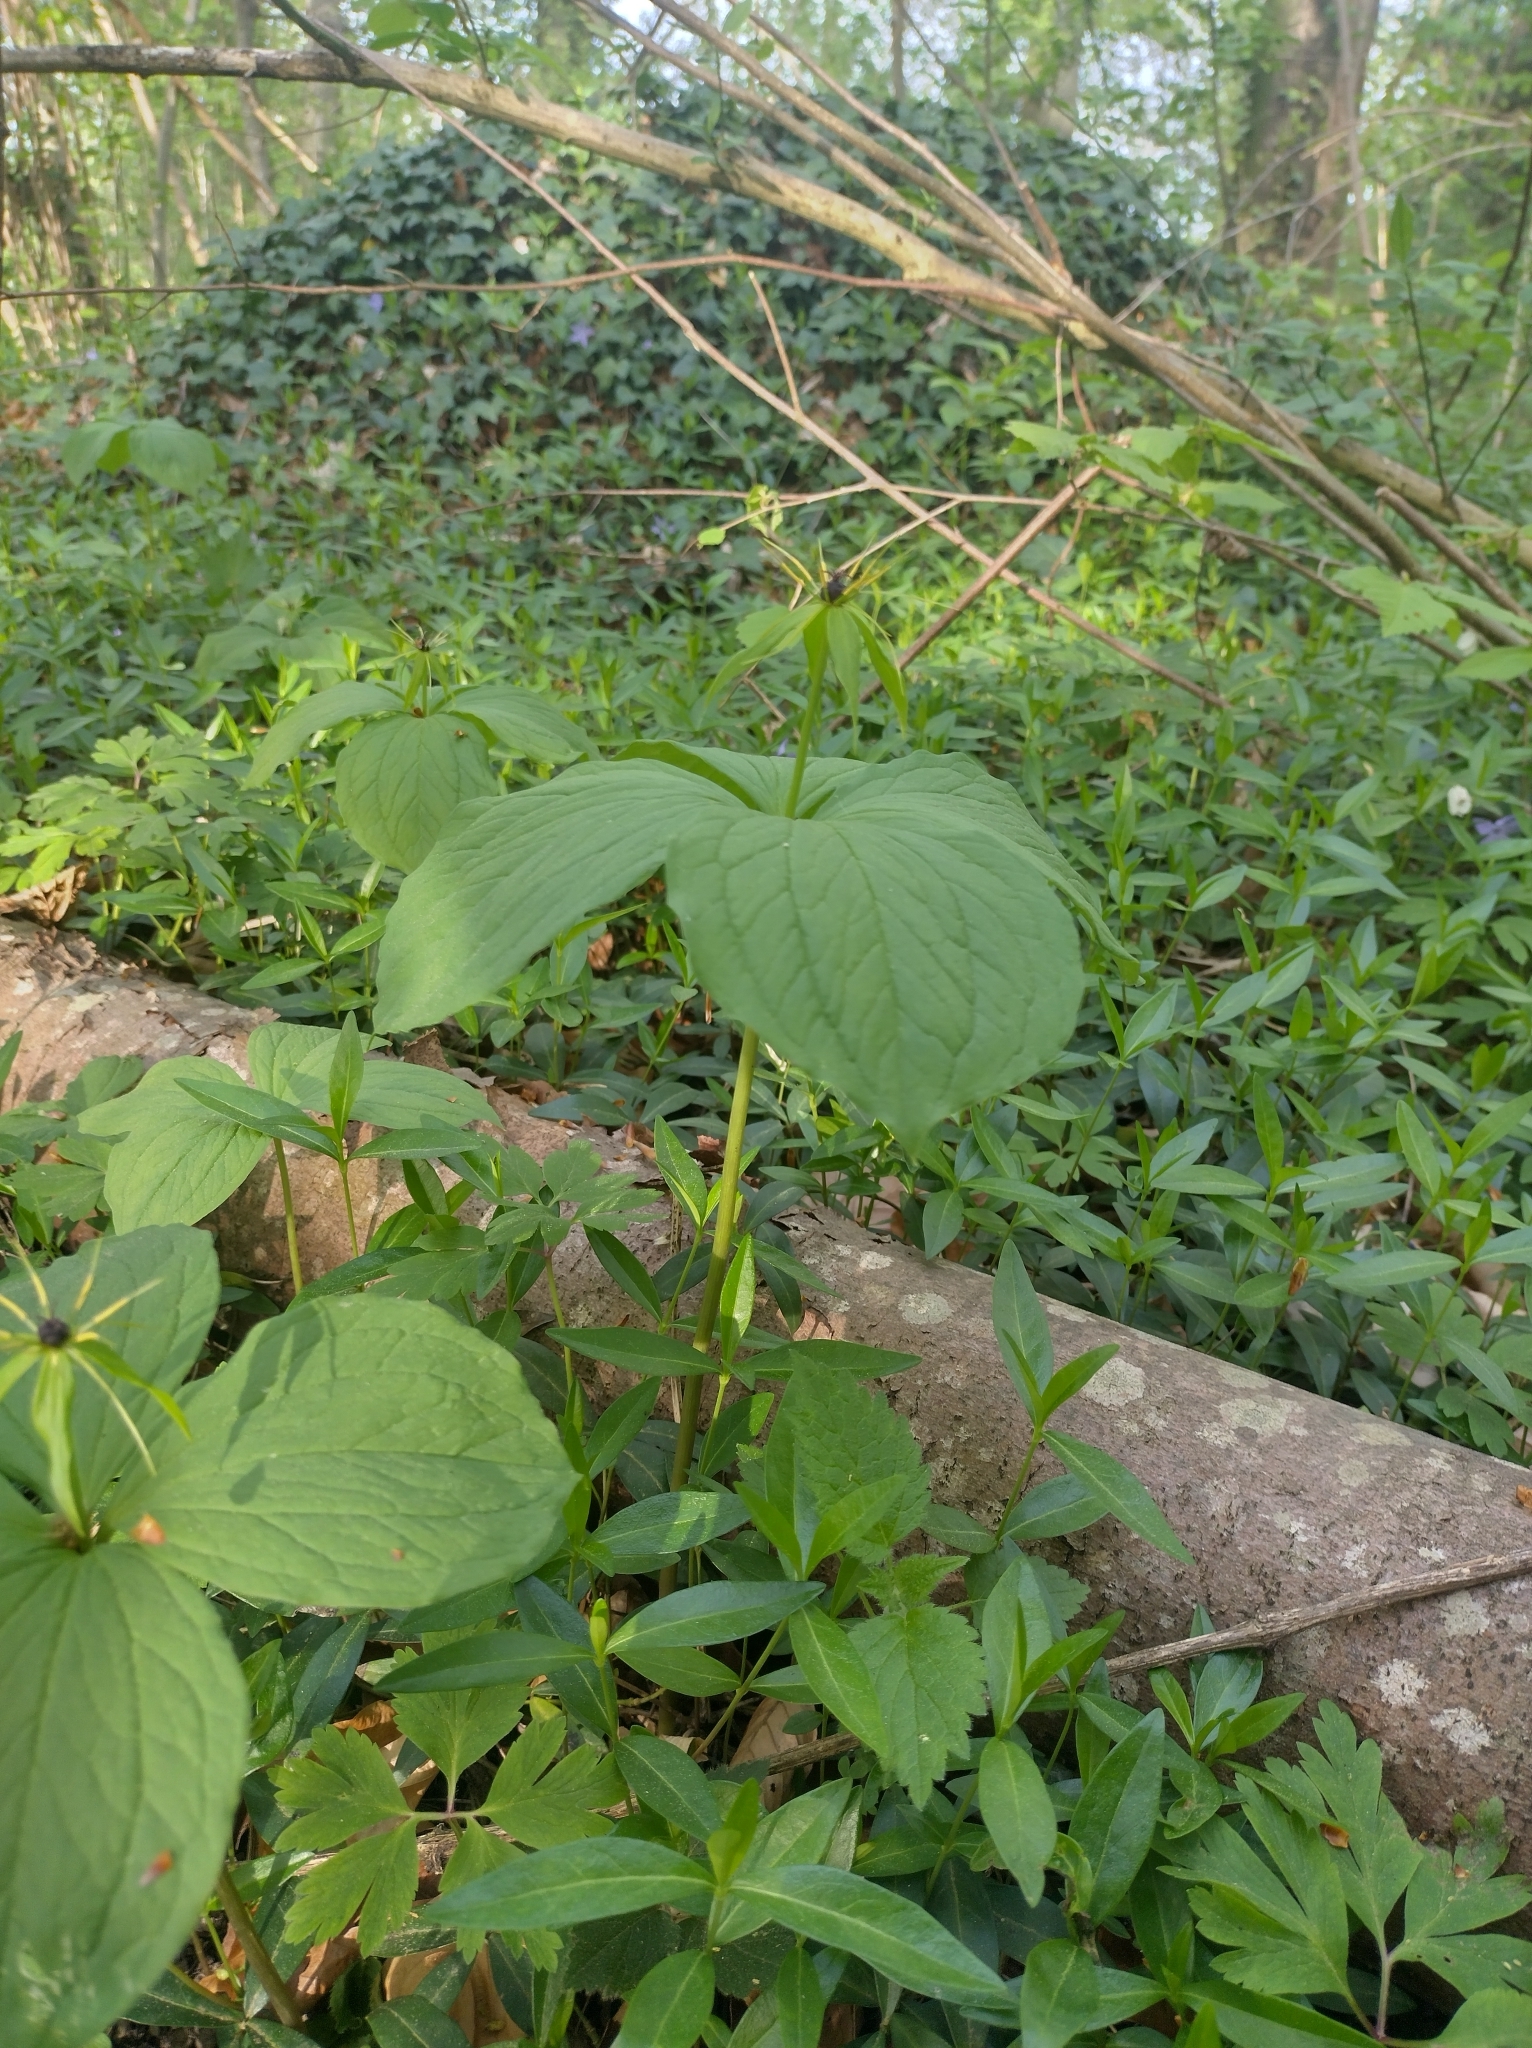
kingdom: Plantae
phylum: Tracheophyta
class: Liliopsida
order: Liliales
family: Melanthiaceae
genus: Paris
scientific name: Paris quadrifolia
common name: Herb-paris
